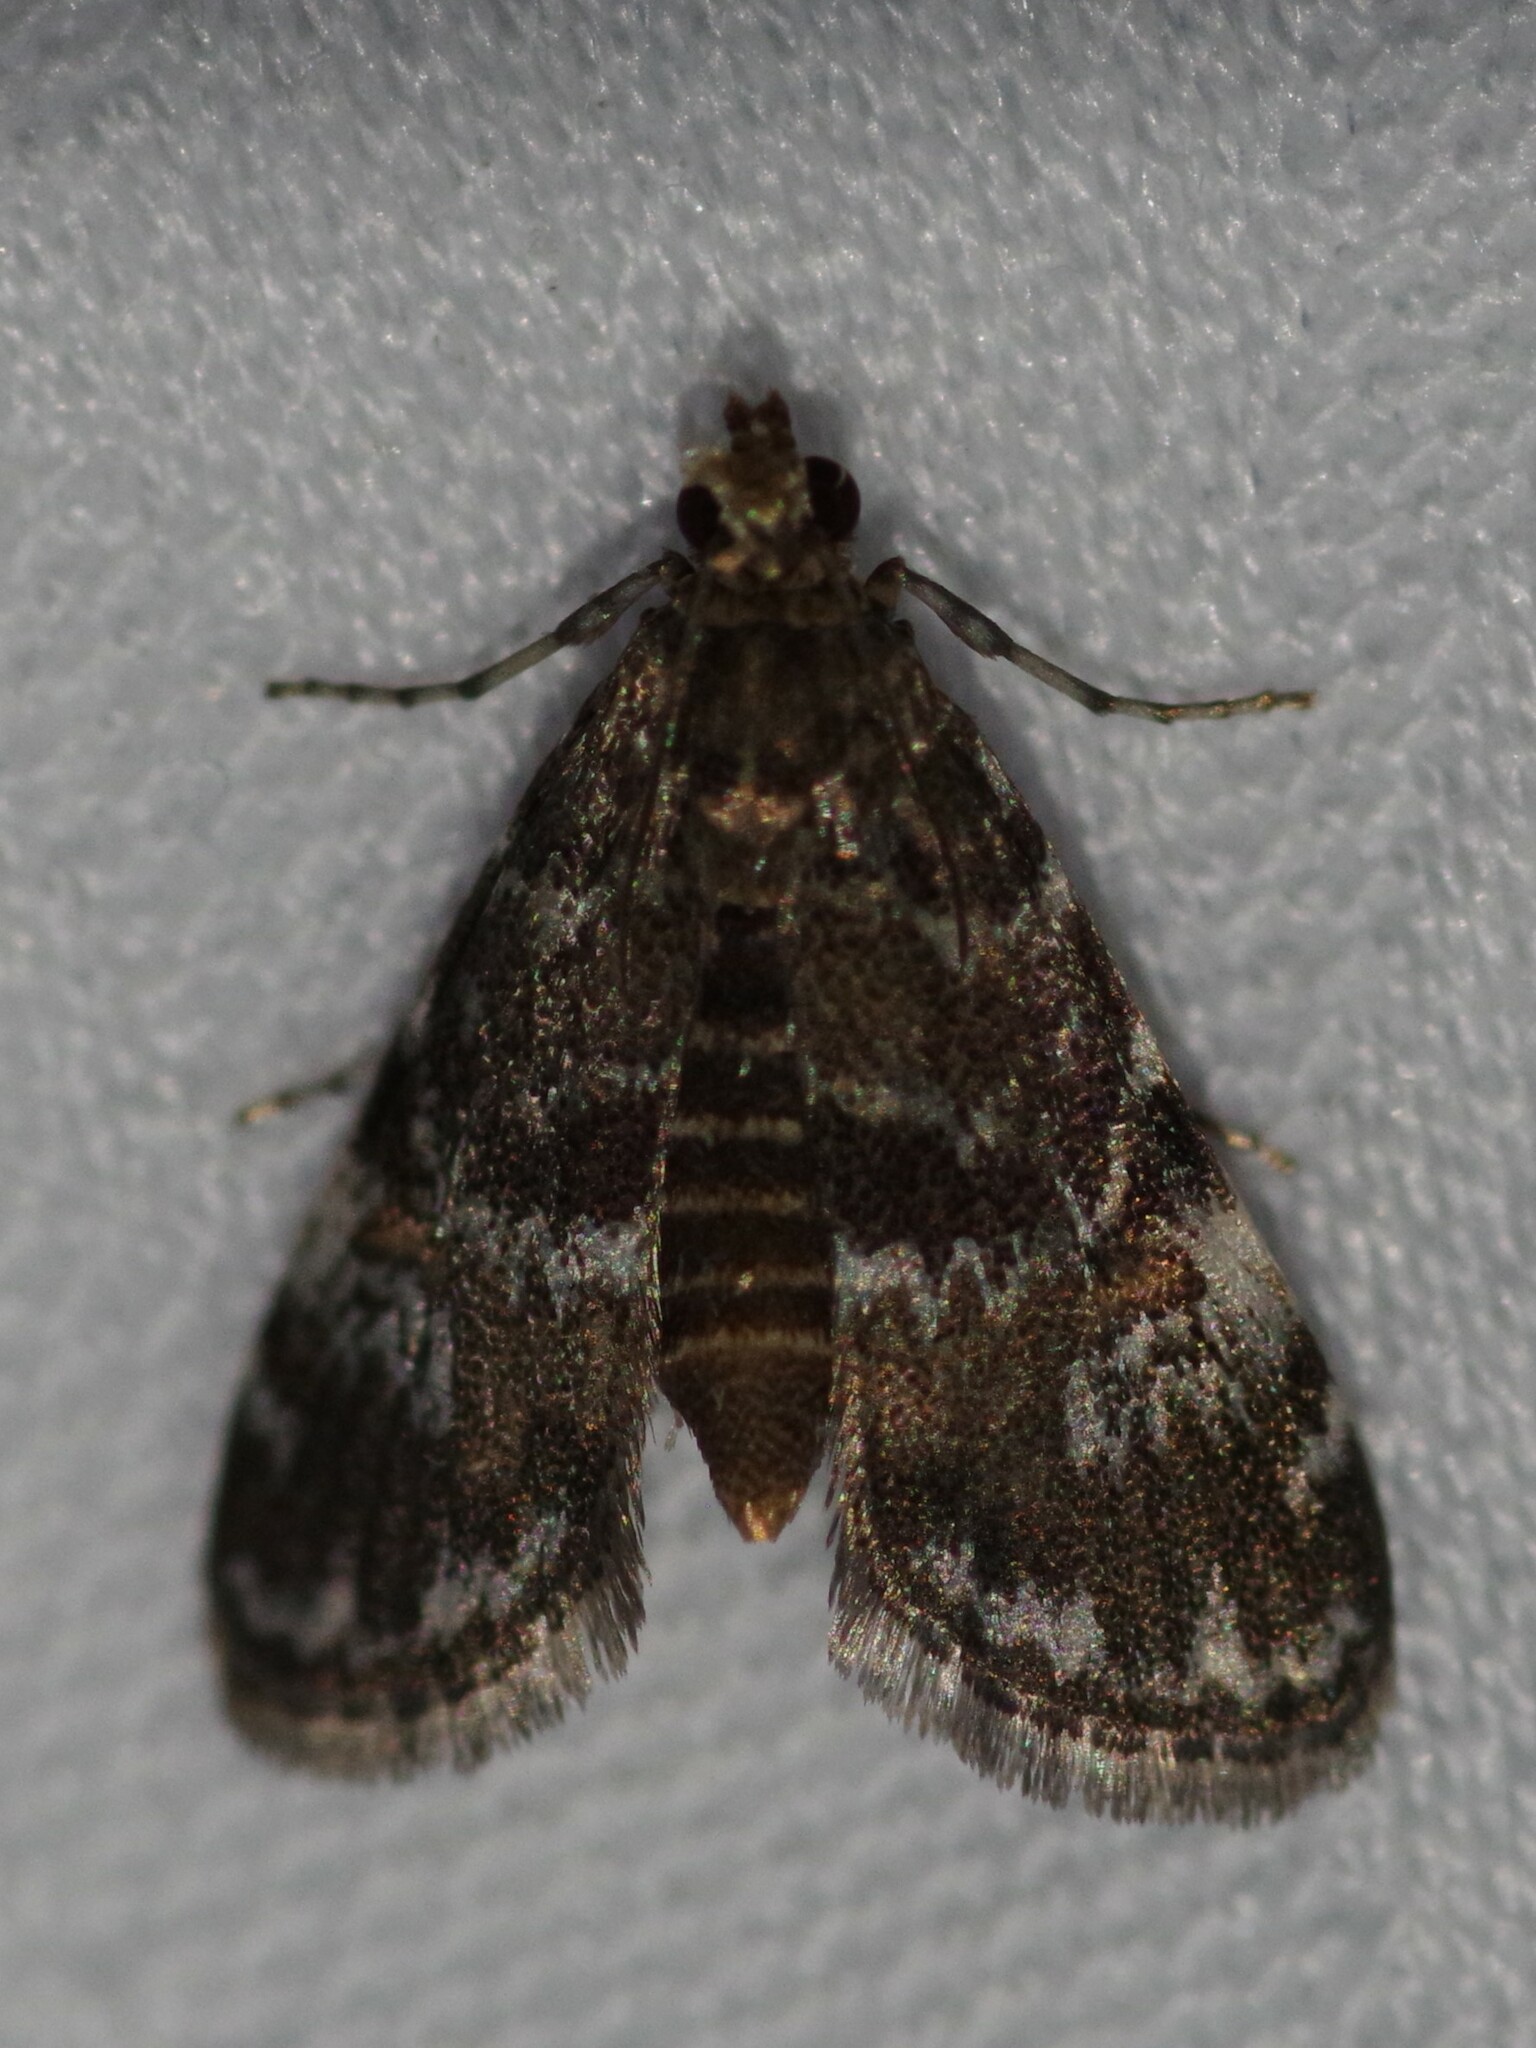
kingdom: Animalia
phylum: Arthropoda
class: Insecta
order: Lepidoptera
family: Crambidae
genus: Elophila
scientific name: Elophila obliteralis
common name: Waterlily leafcutter moth
